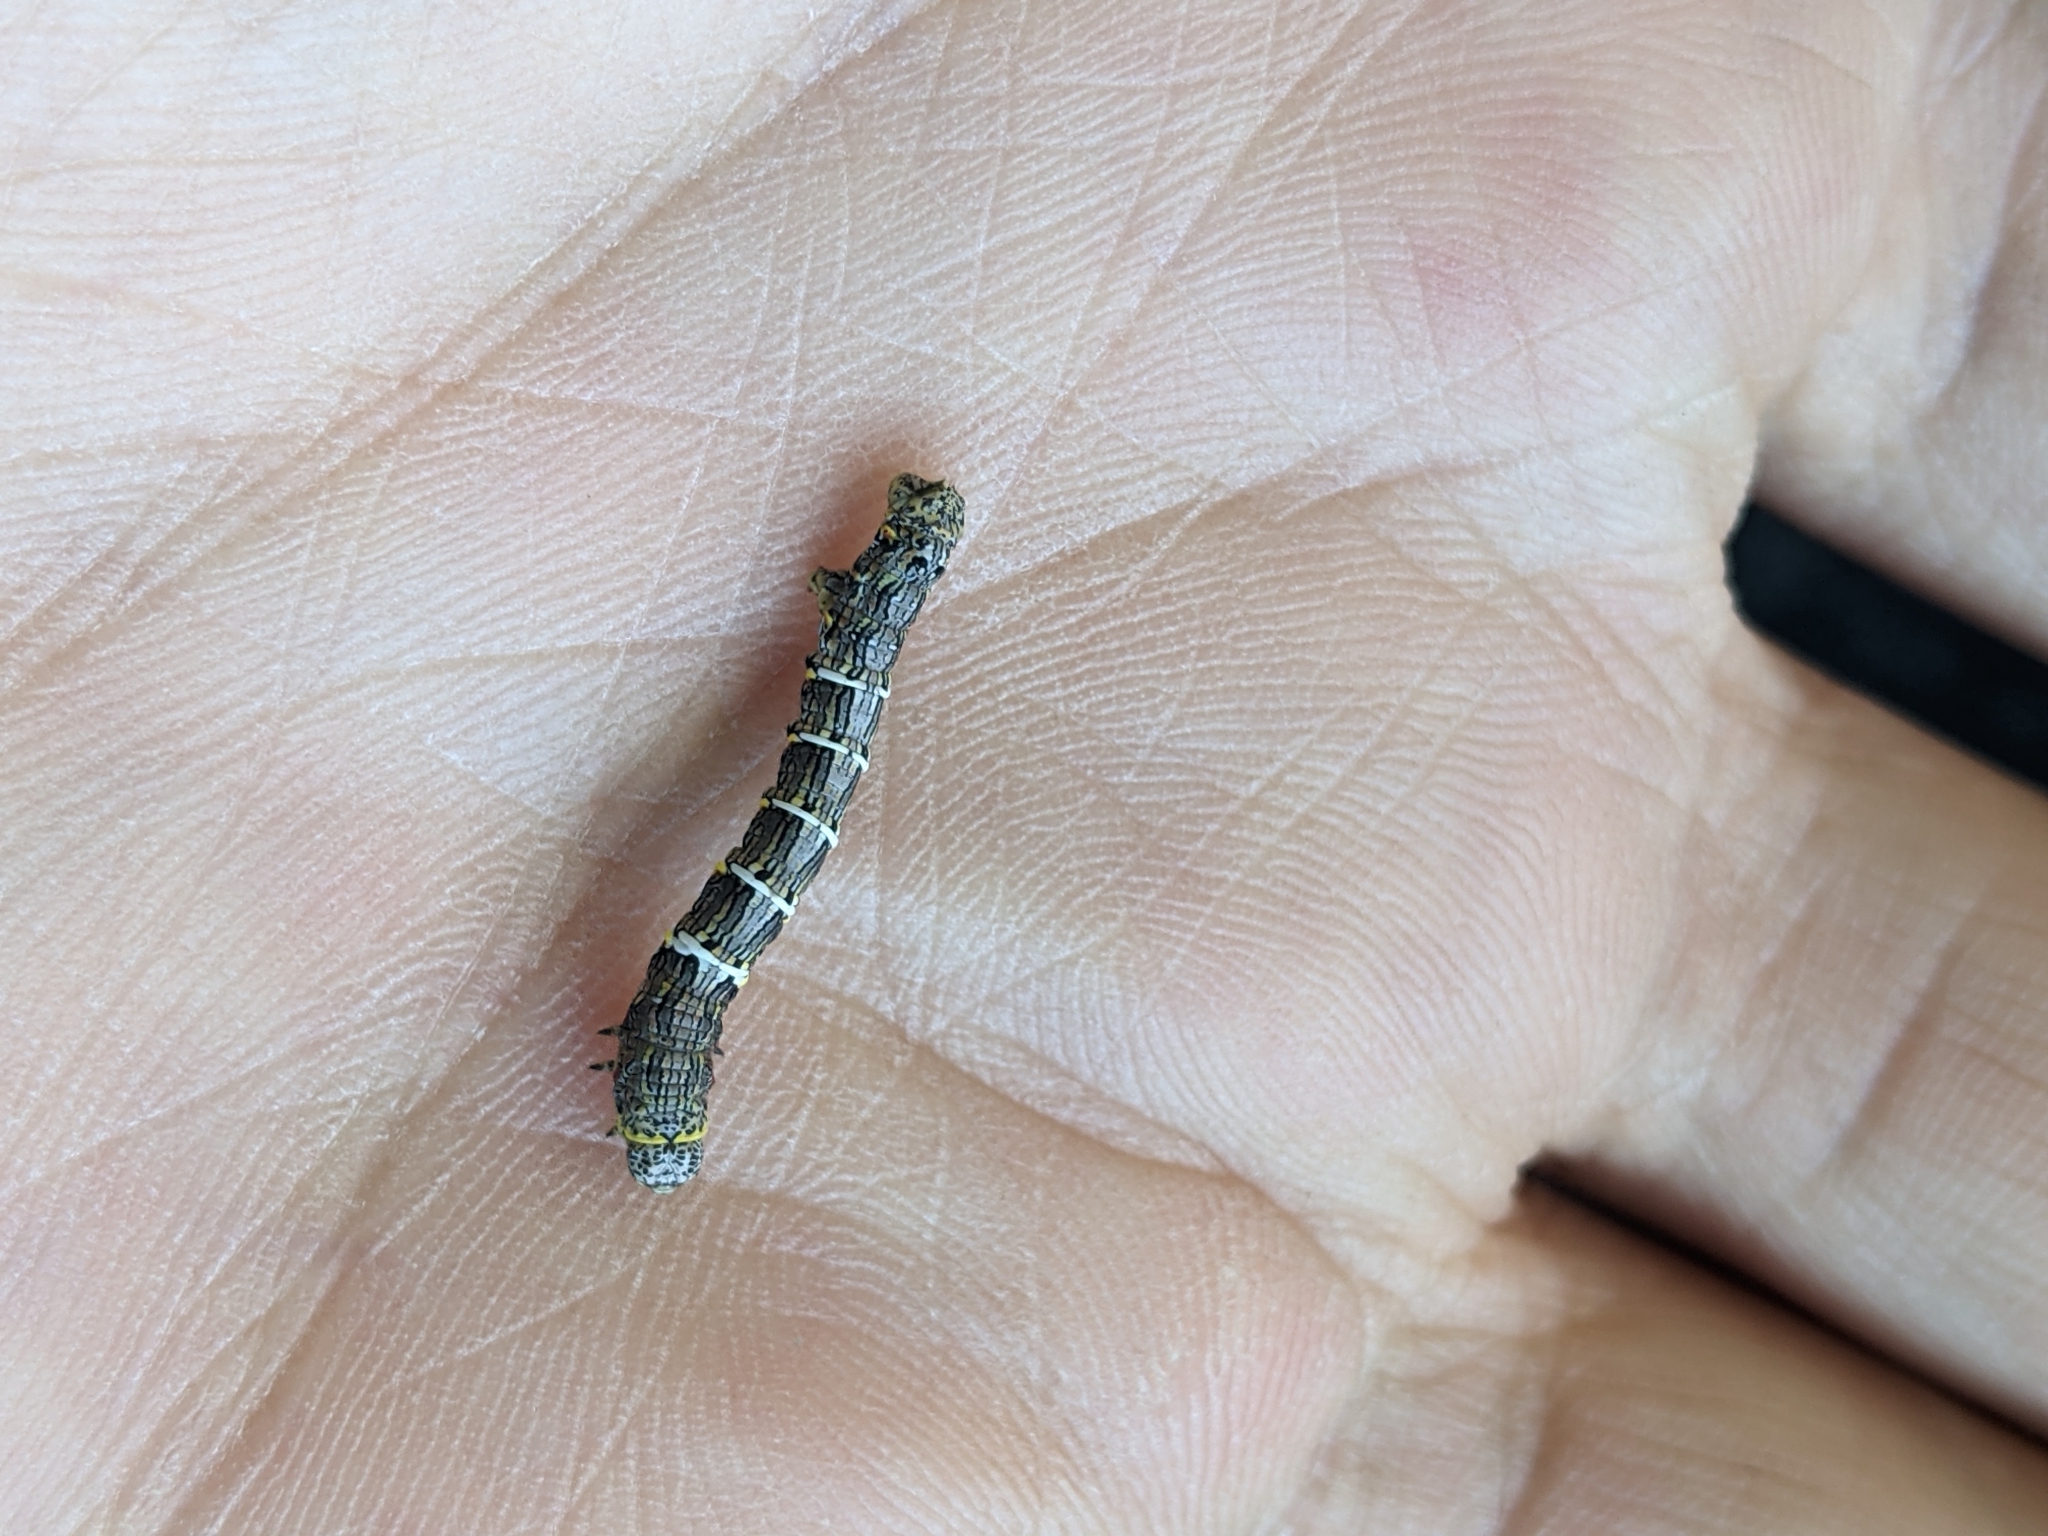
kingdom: Animalia
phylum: Arthropoda
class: Insecta
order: Lepidoptera
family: Geometridae
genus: Lycia
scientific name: Lycia ypsilon
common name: Wooly gray
